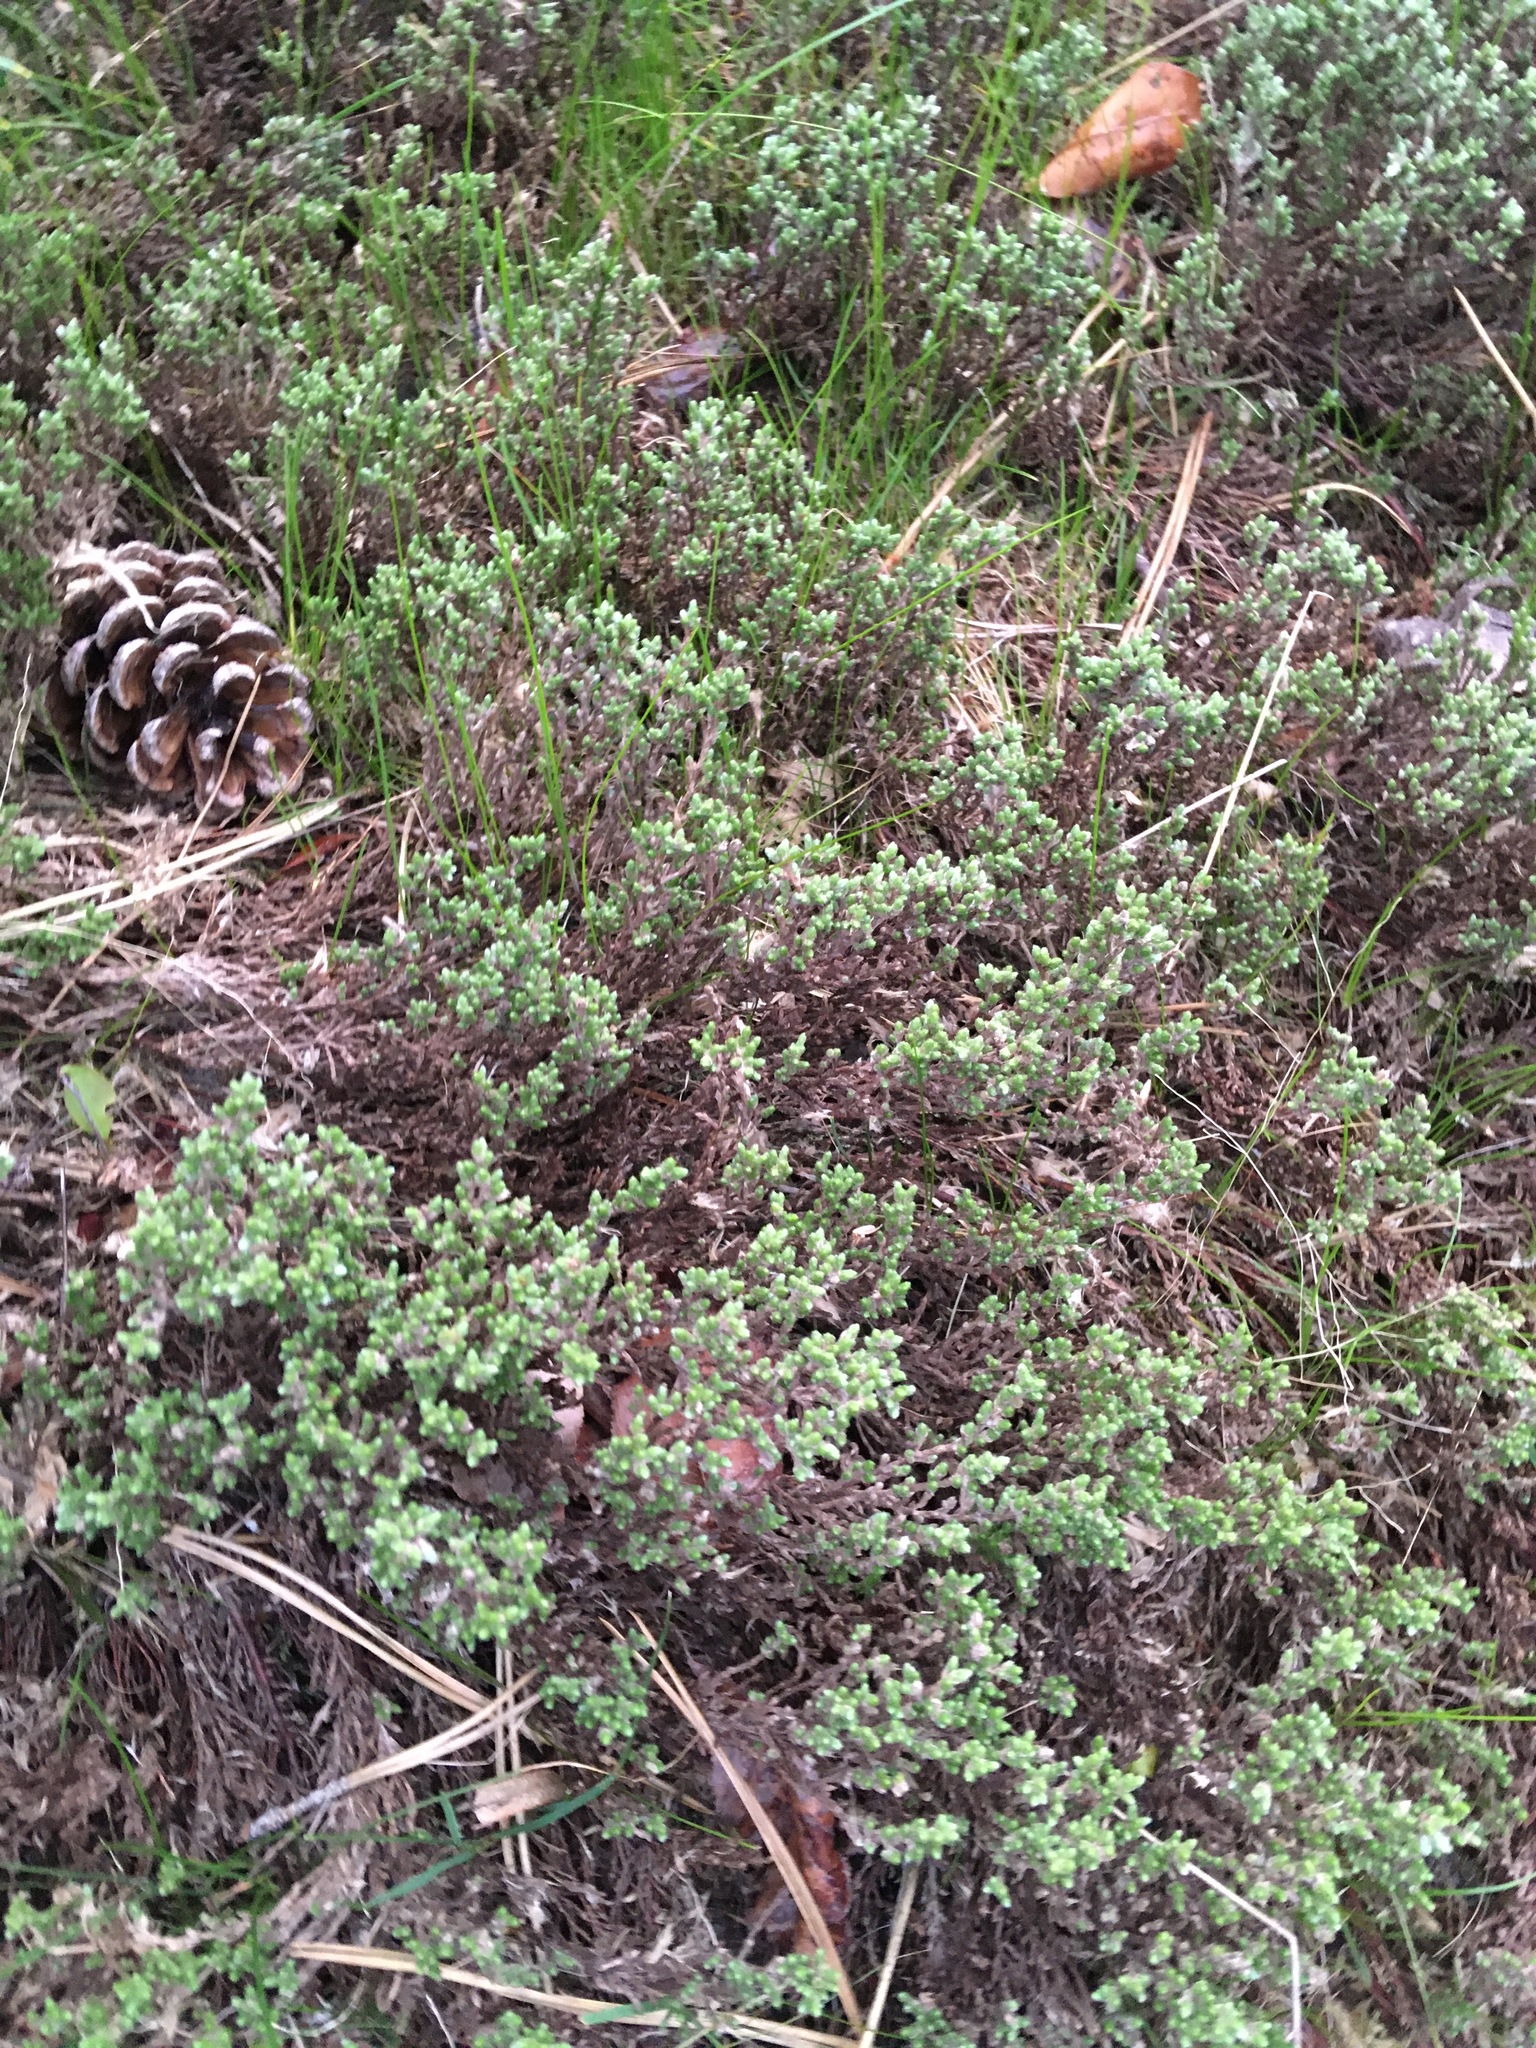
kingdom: Plantae
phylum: Tracheophyta
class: Magnoliopsida
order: Malvales
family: Cistaceae
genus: Hudsonia
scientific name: Hudsonia tomentosa
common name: Beach-heath
